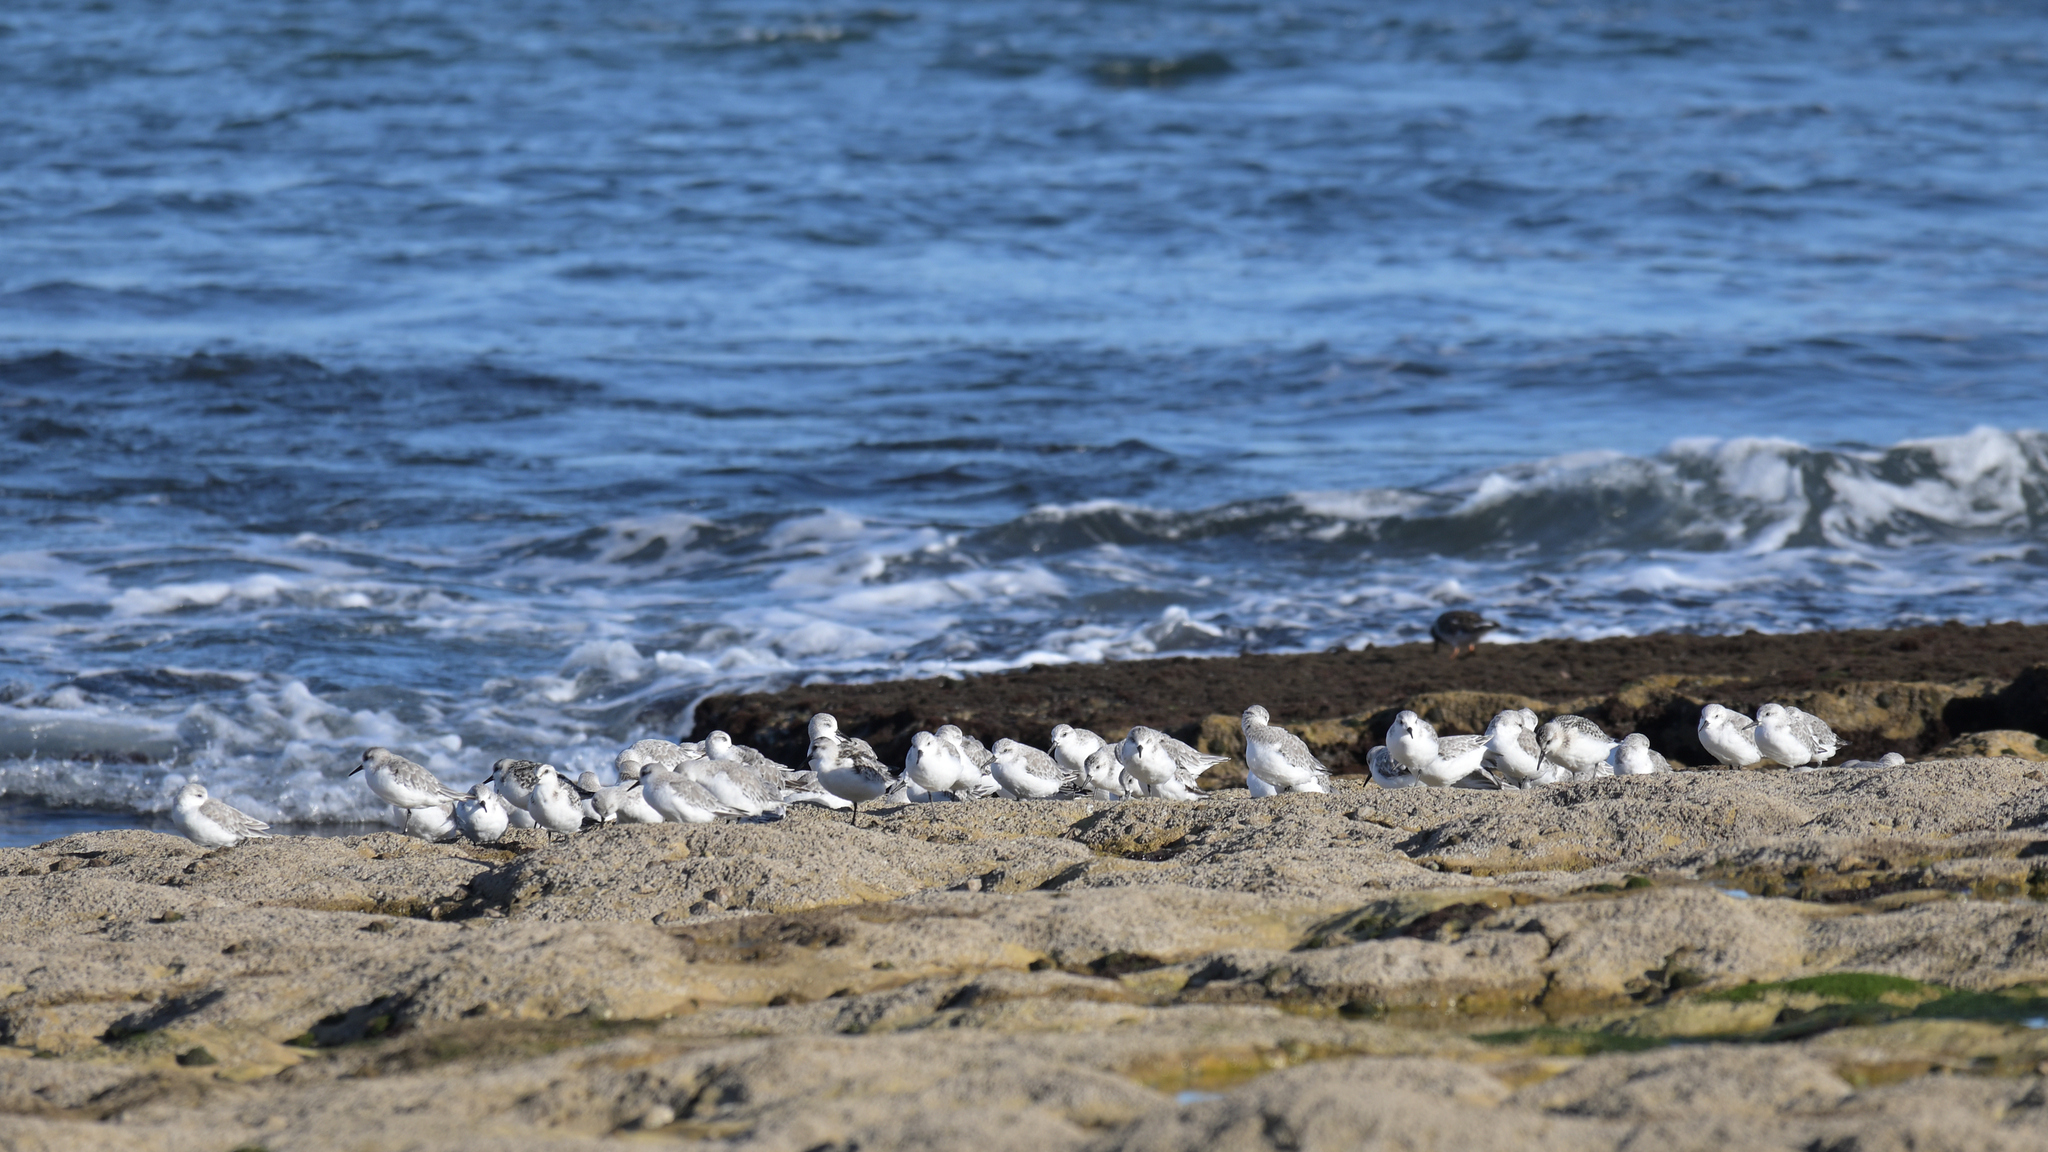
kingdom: Animalia
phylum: Chordata
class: Aves
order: Charadriiformes
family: Scolopacidae
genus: Calidris
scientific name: Calidris alba
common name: Sanderling
